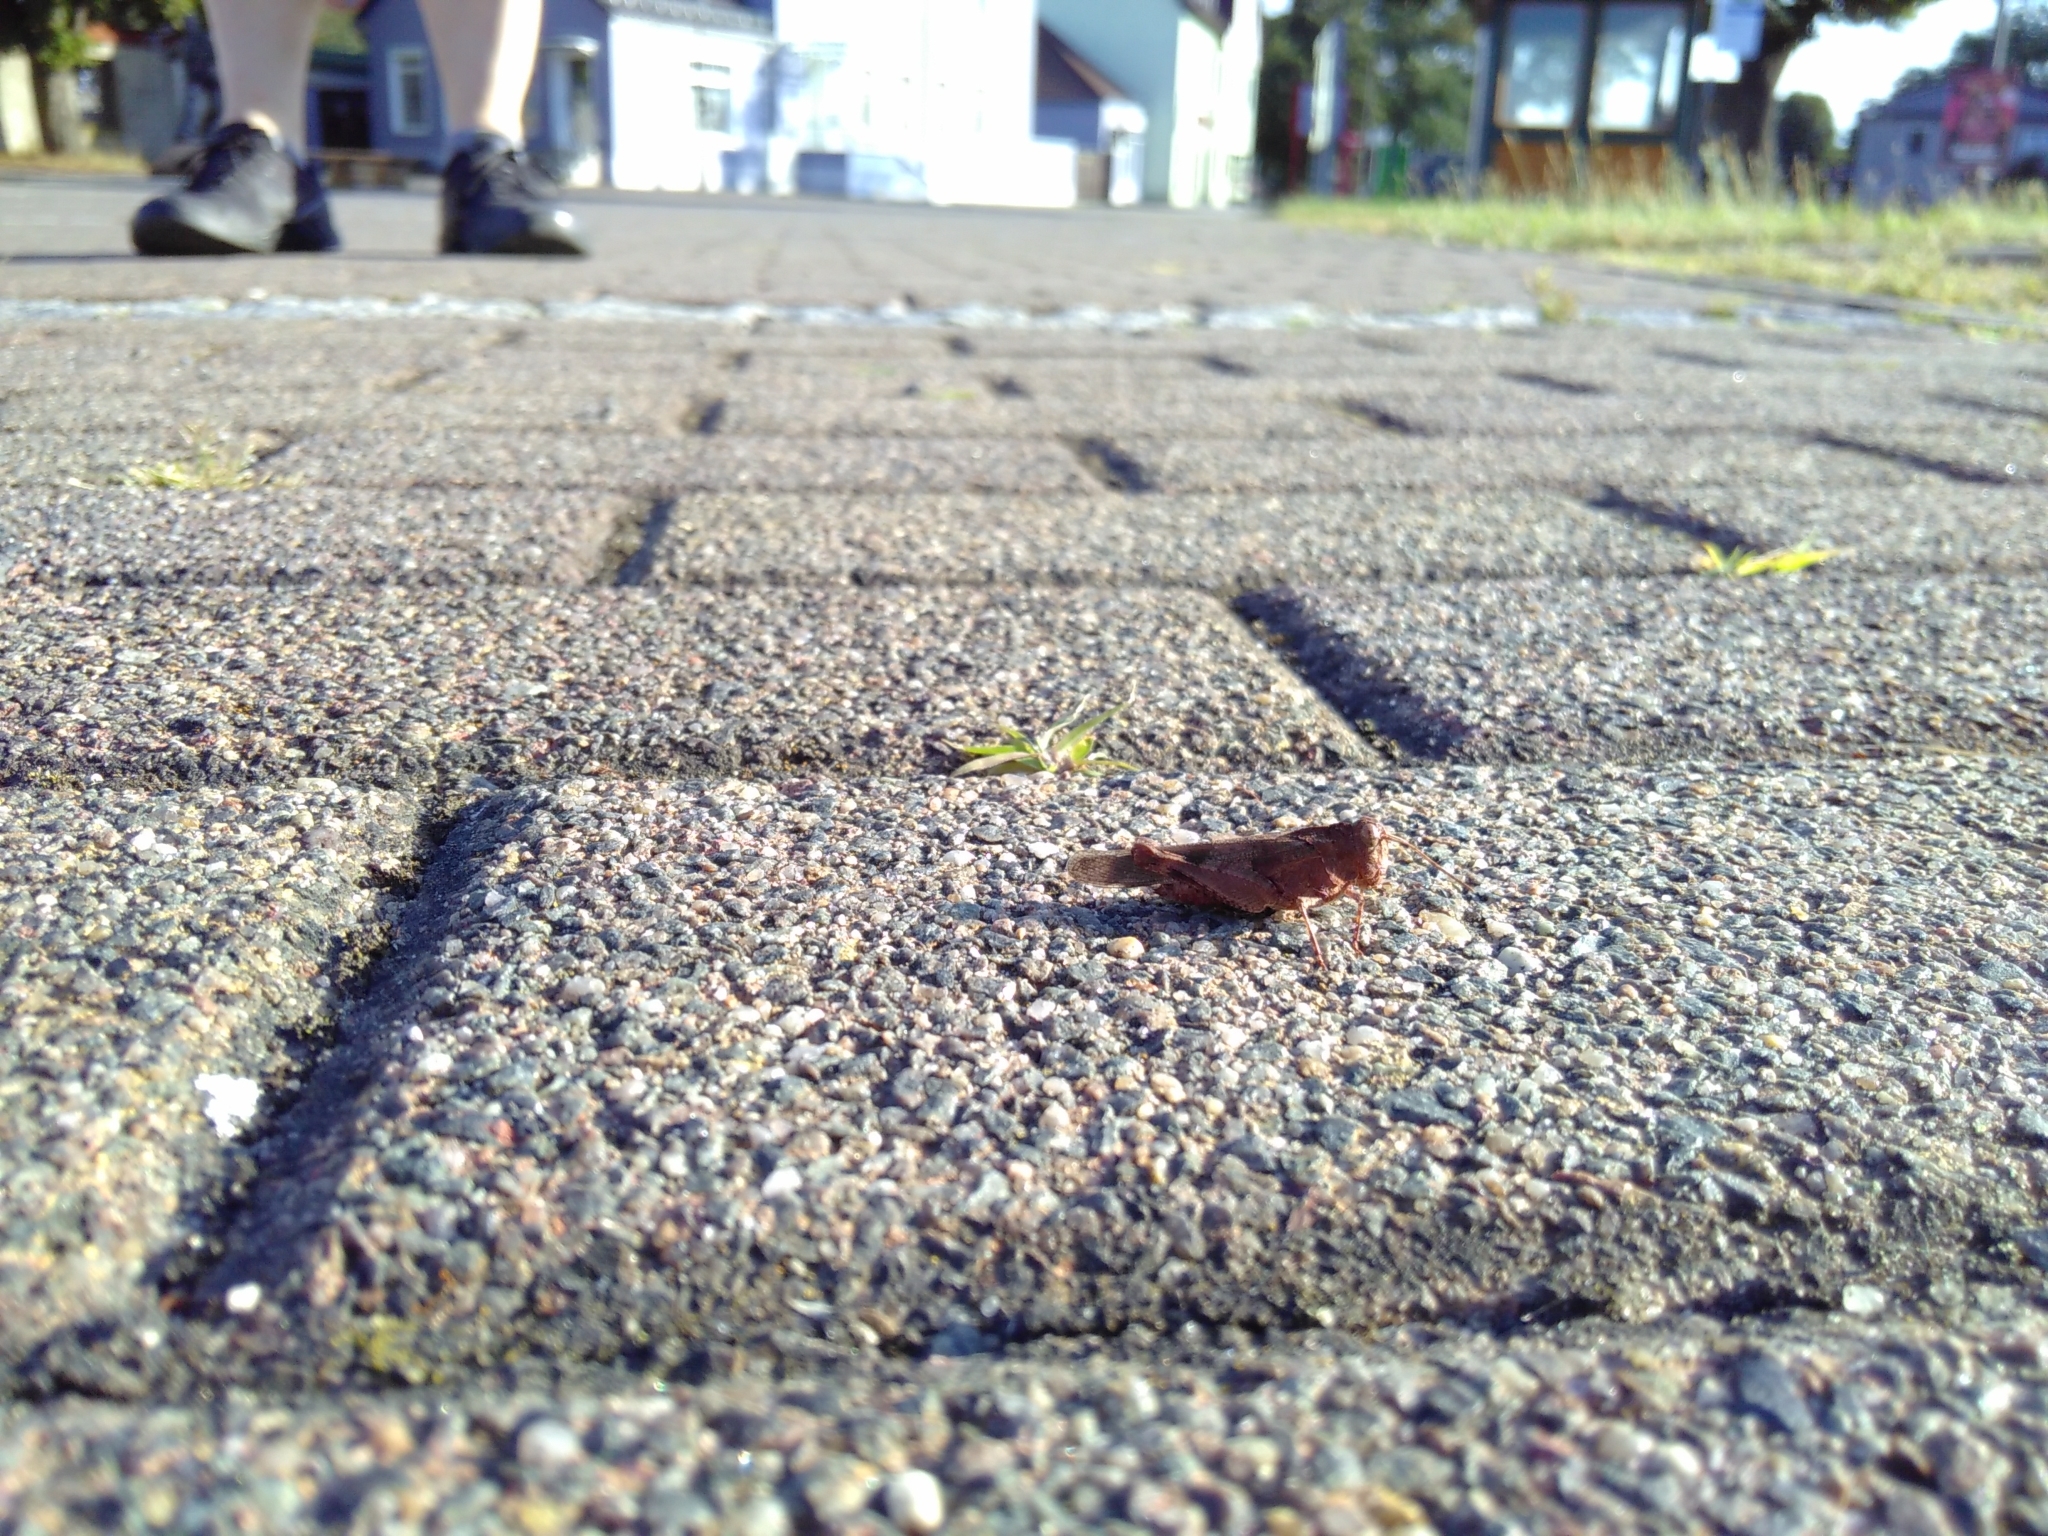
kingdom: Animalia
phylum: Arthropoda
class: Insecta
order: Orthoptera
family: Acrididae
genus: Oedipoda
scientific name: Oedipoda caerulescens
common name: Blue-winged grasshopper
